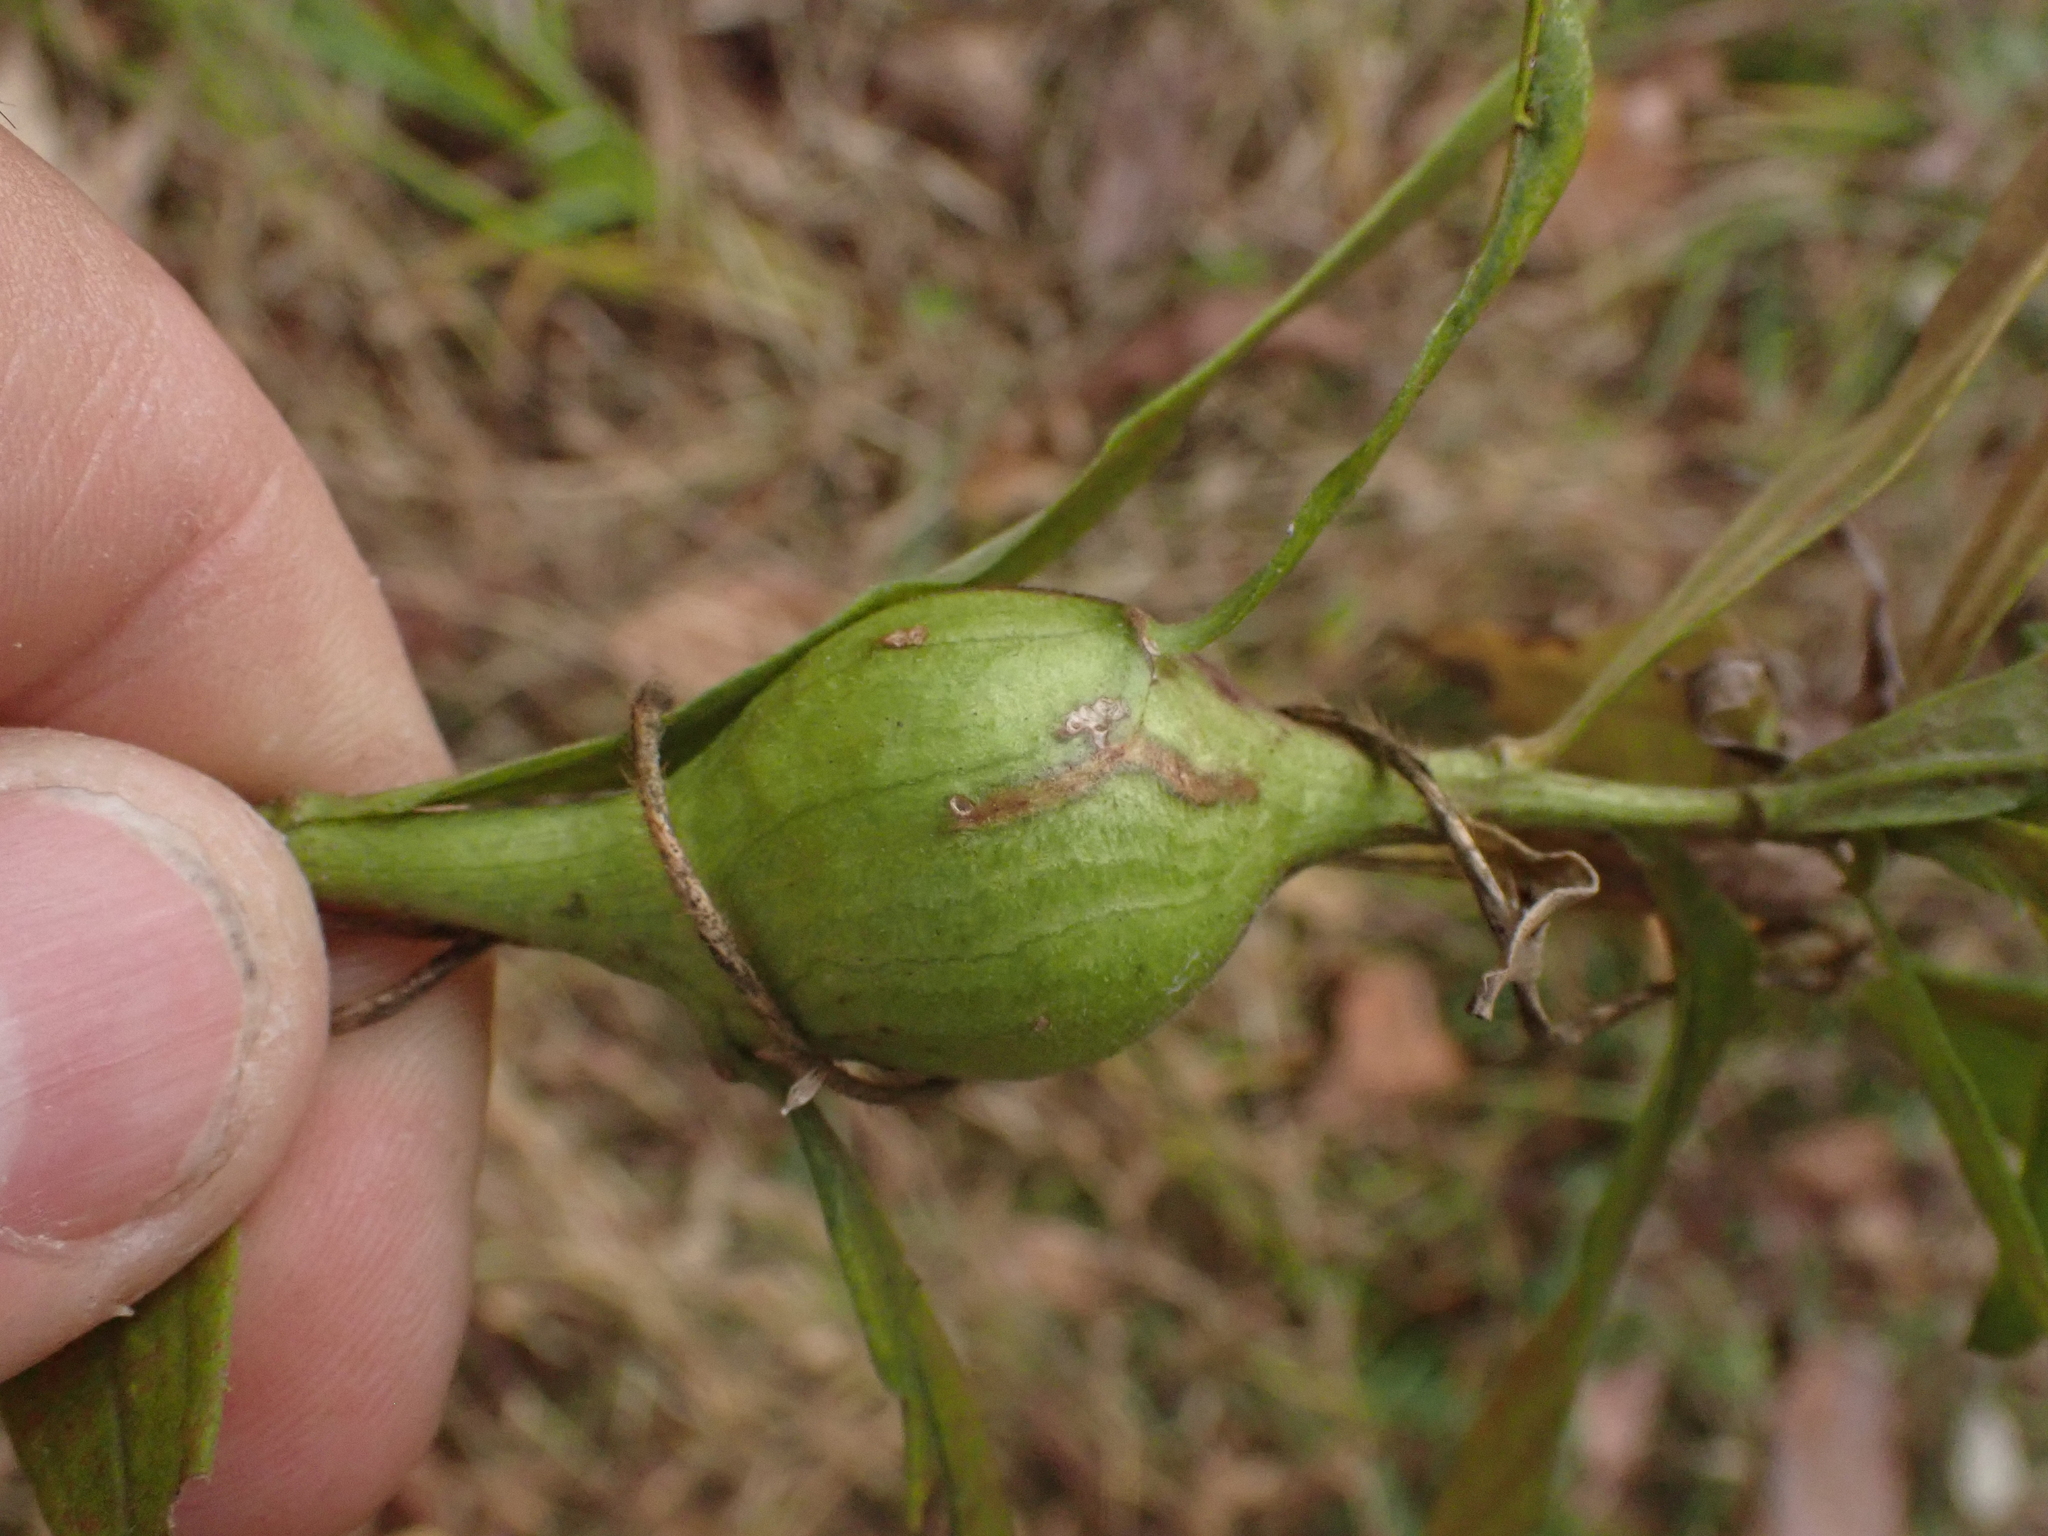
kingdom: Animalia
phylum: Arthropoda
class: Insecta
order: Diptera
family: Tephritidae
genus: Eurosta
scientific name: Eurosta solidaginis
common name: Goldenrod gall fly
